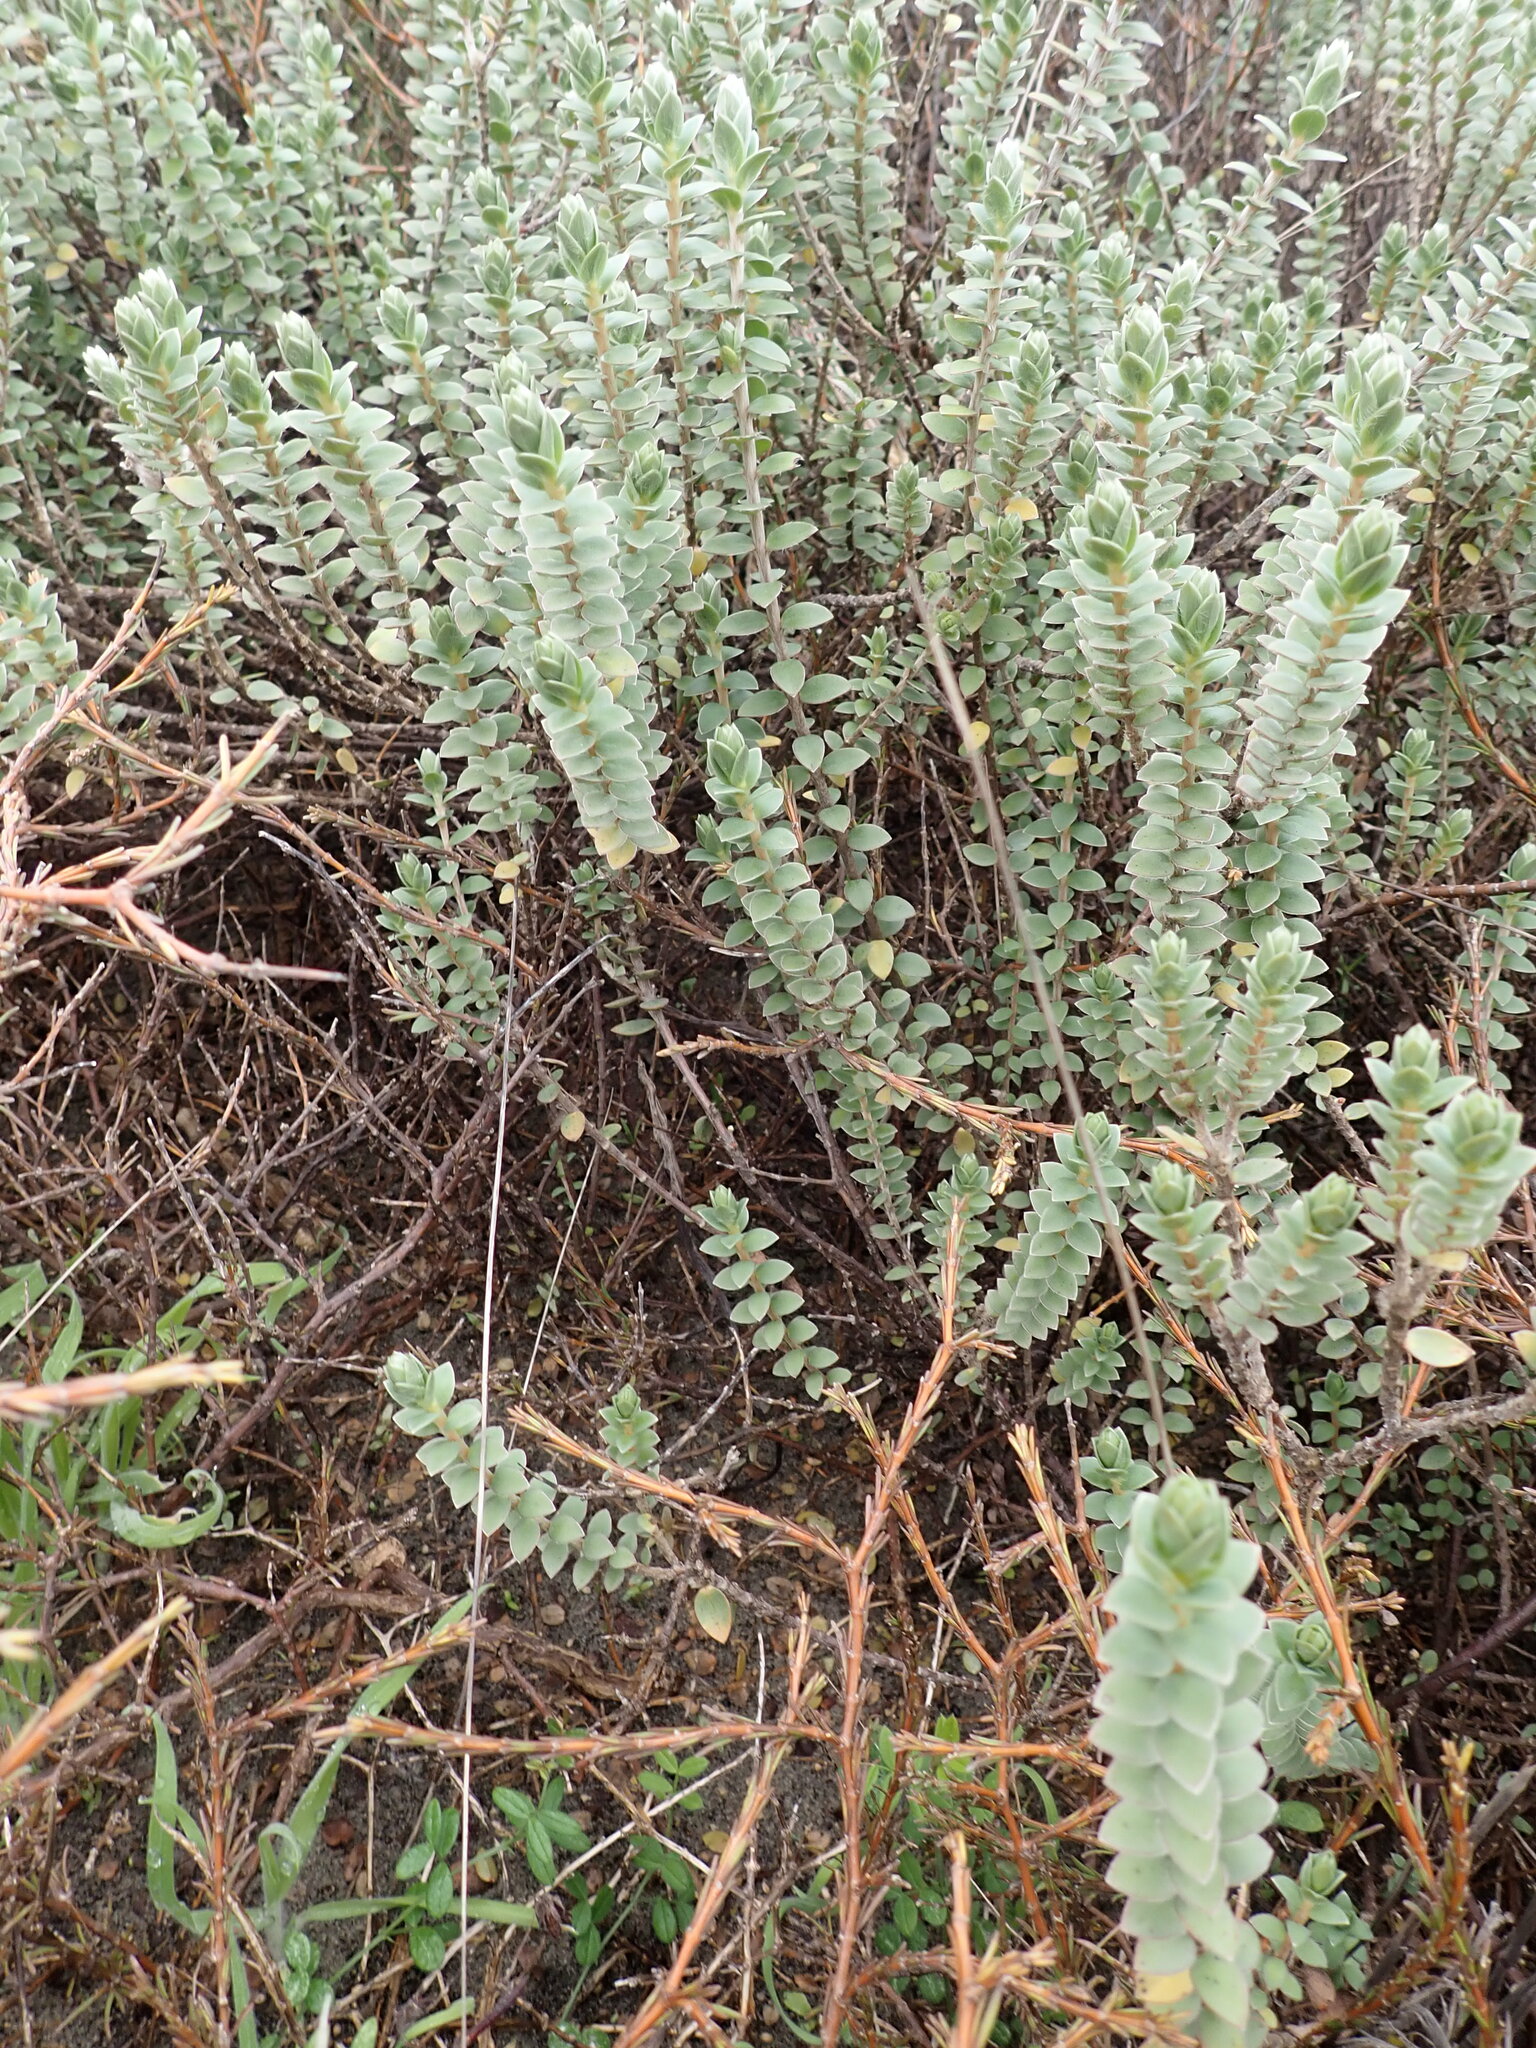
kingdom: Plantae
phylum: Tracheophyta
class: Magnoliopsida
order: Malvales
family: Thymelaeaceae
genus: Pimelea
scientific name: Pimelea villosa
